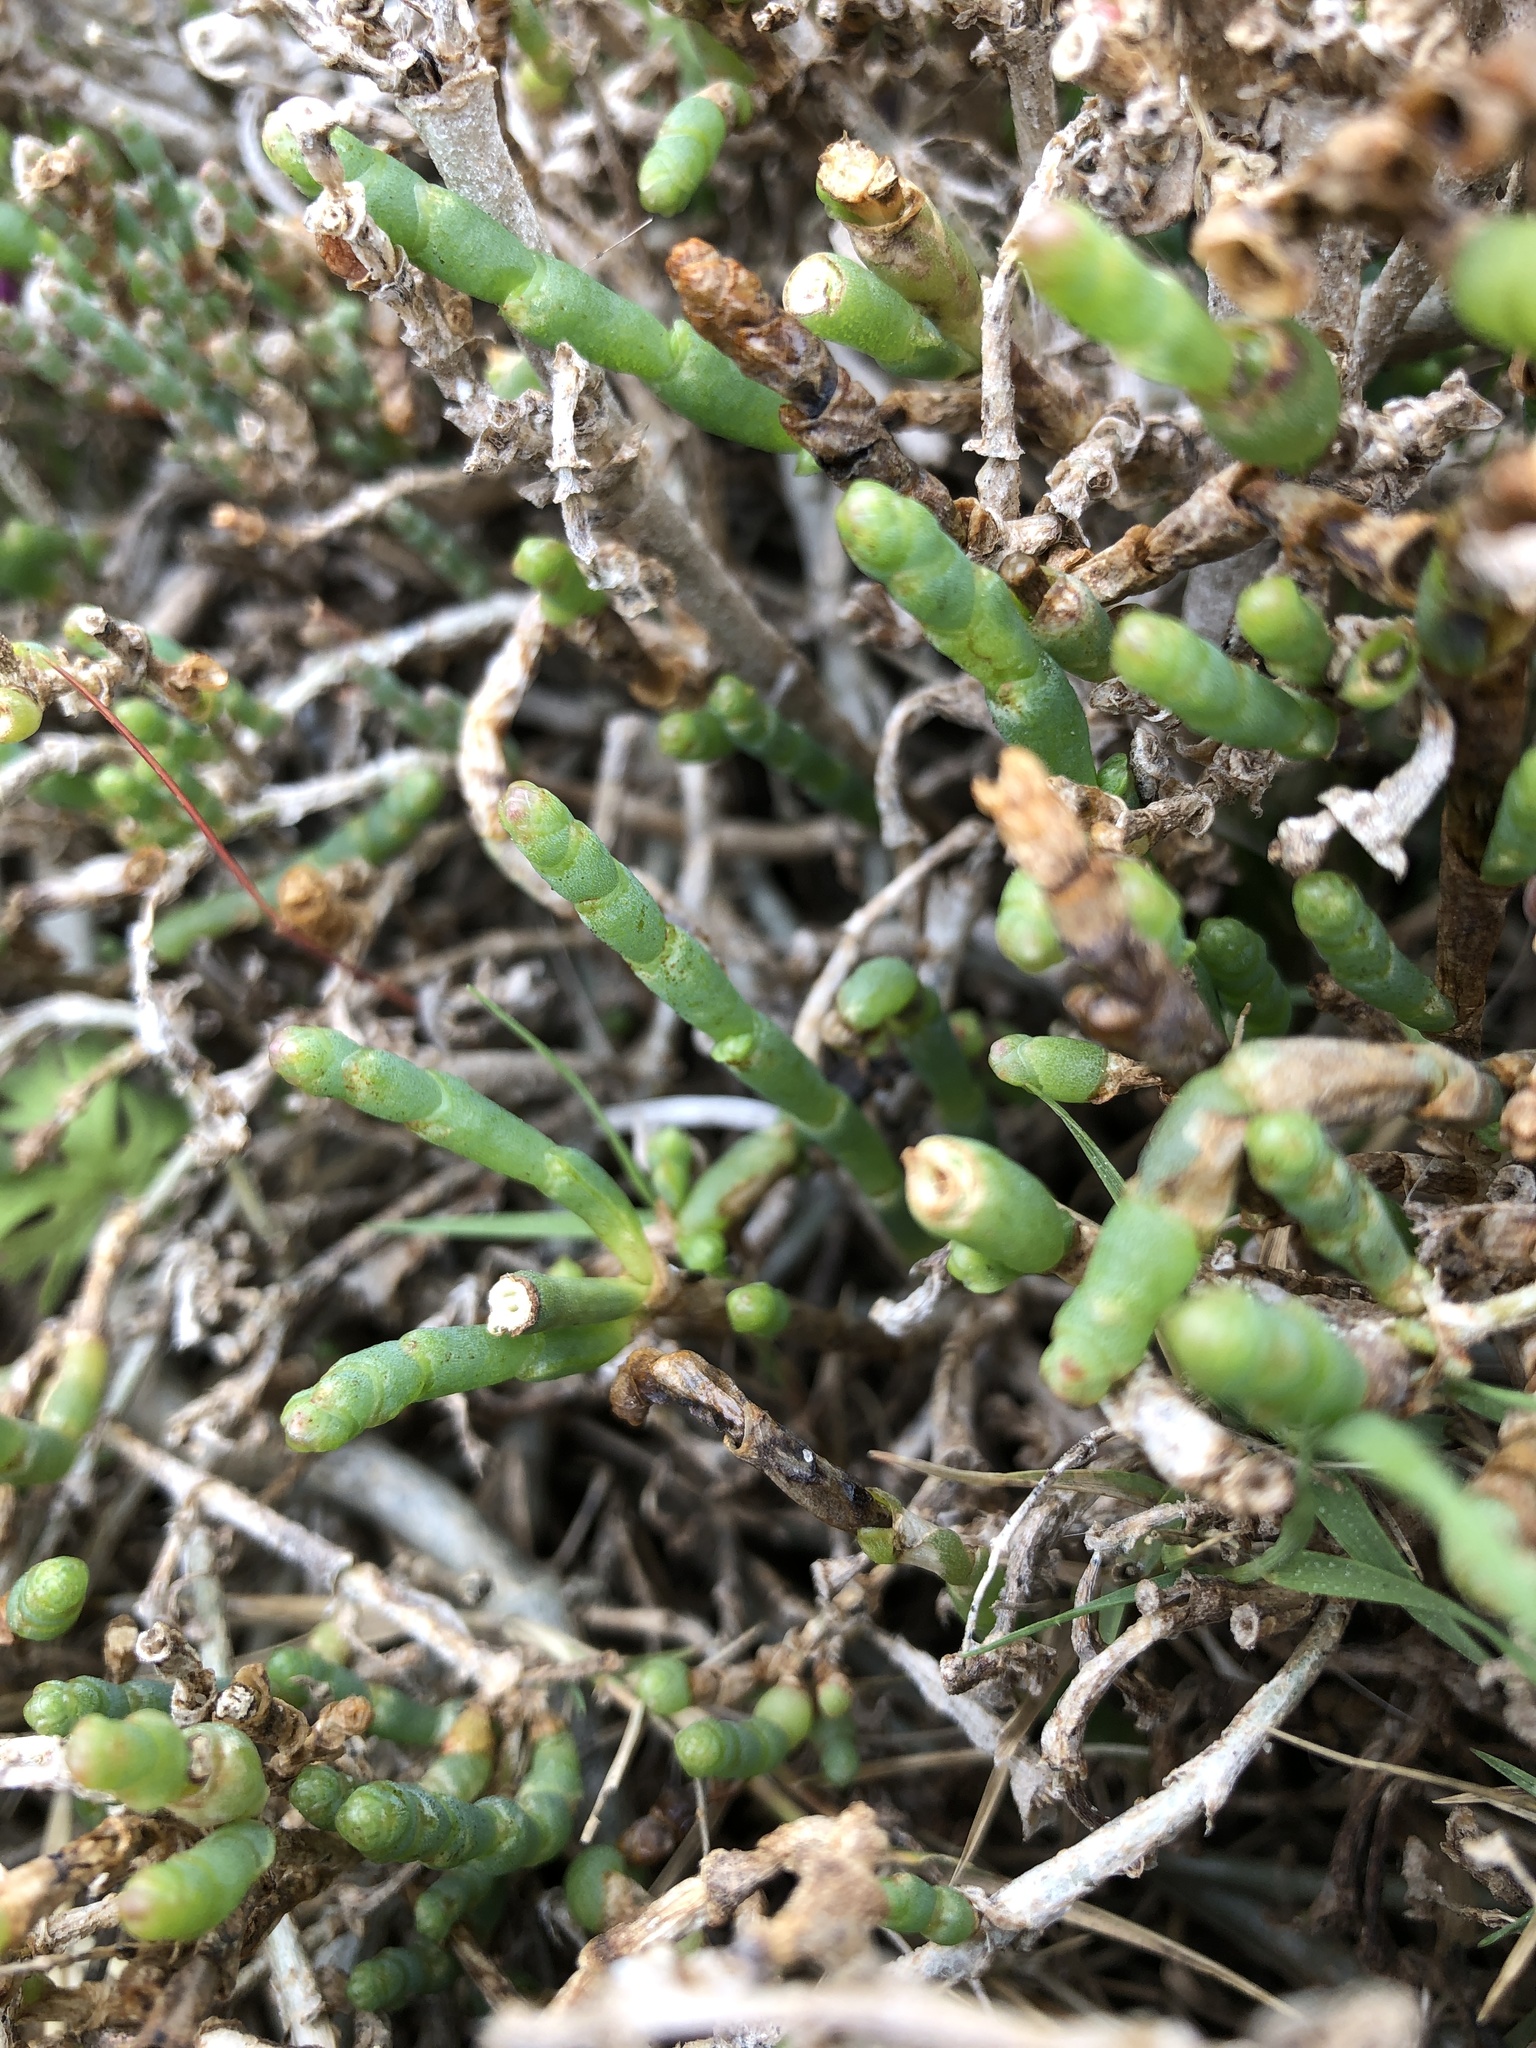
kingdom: Plantae
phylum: Tracheophyta
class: Magnoliopsida
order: Caryophyllales
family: Amaranthaceae
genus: Salicornia
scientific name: Salicornia pacifica
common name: Pacific glasswort
